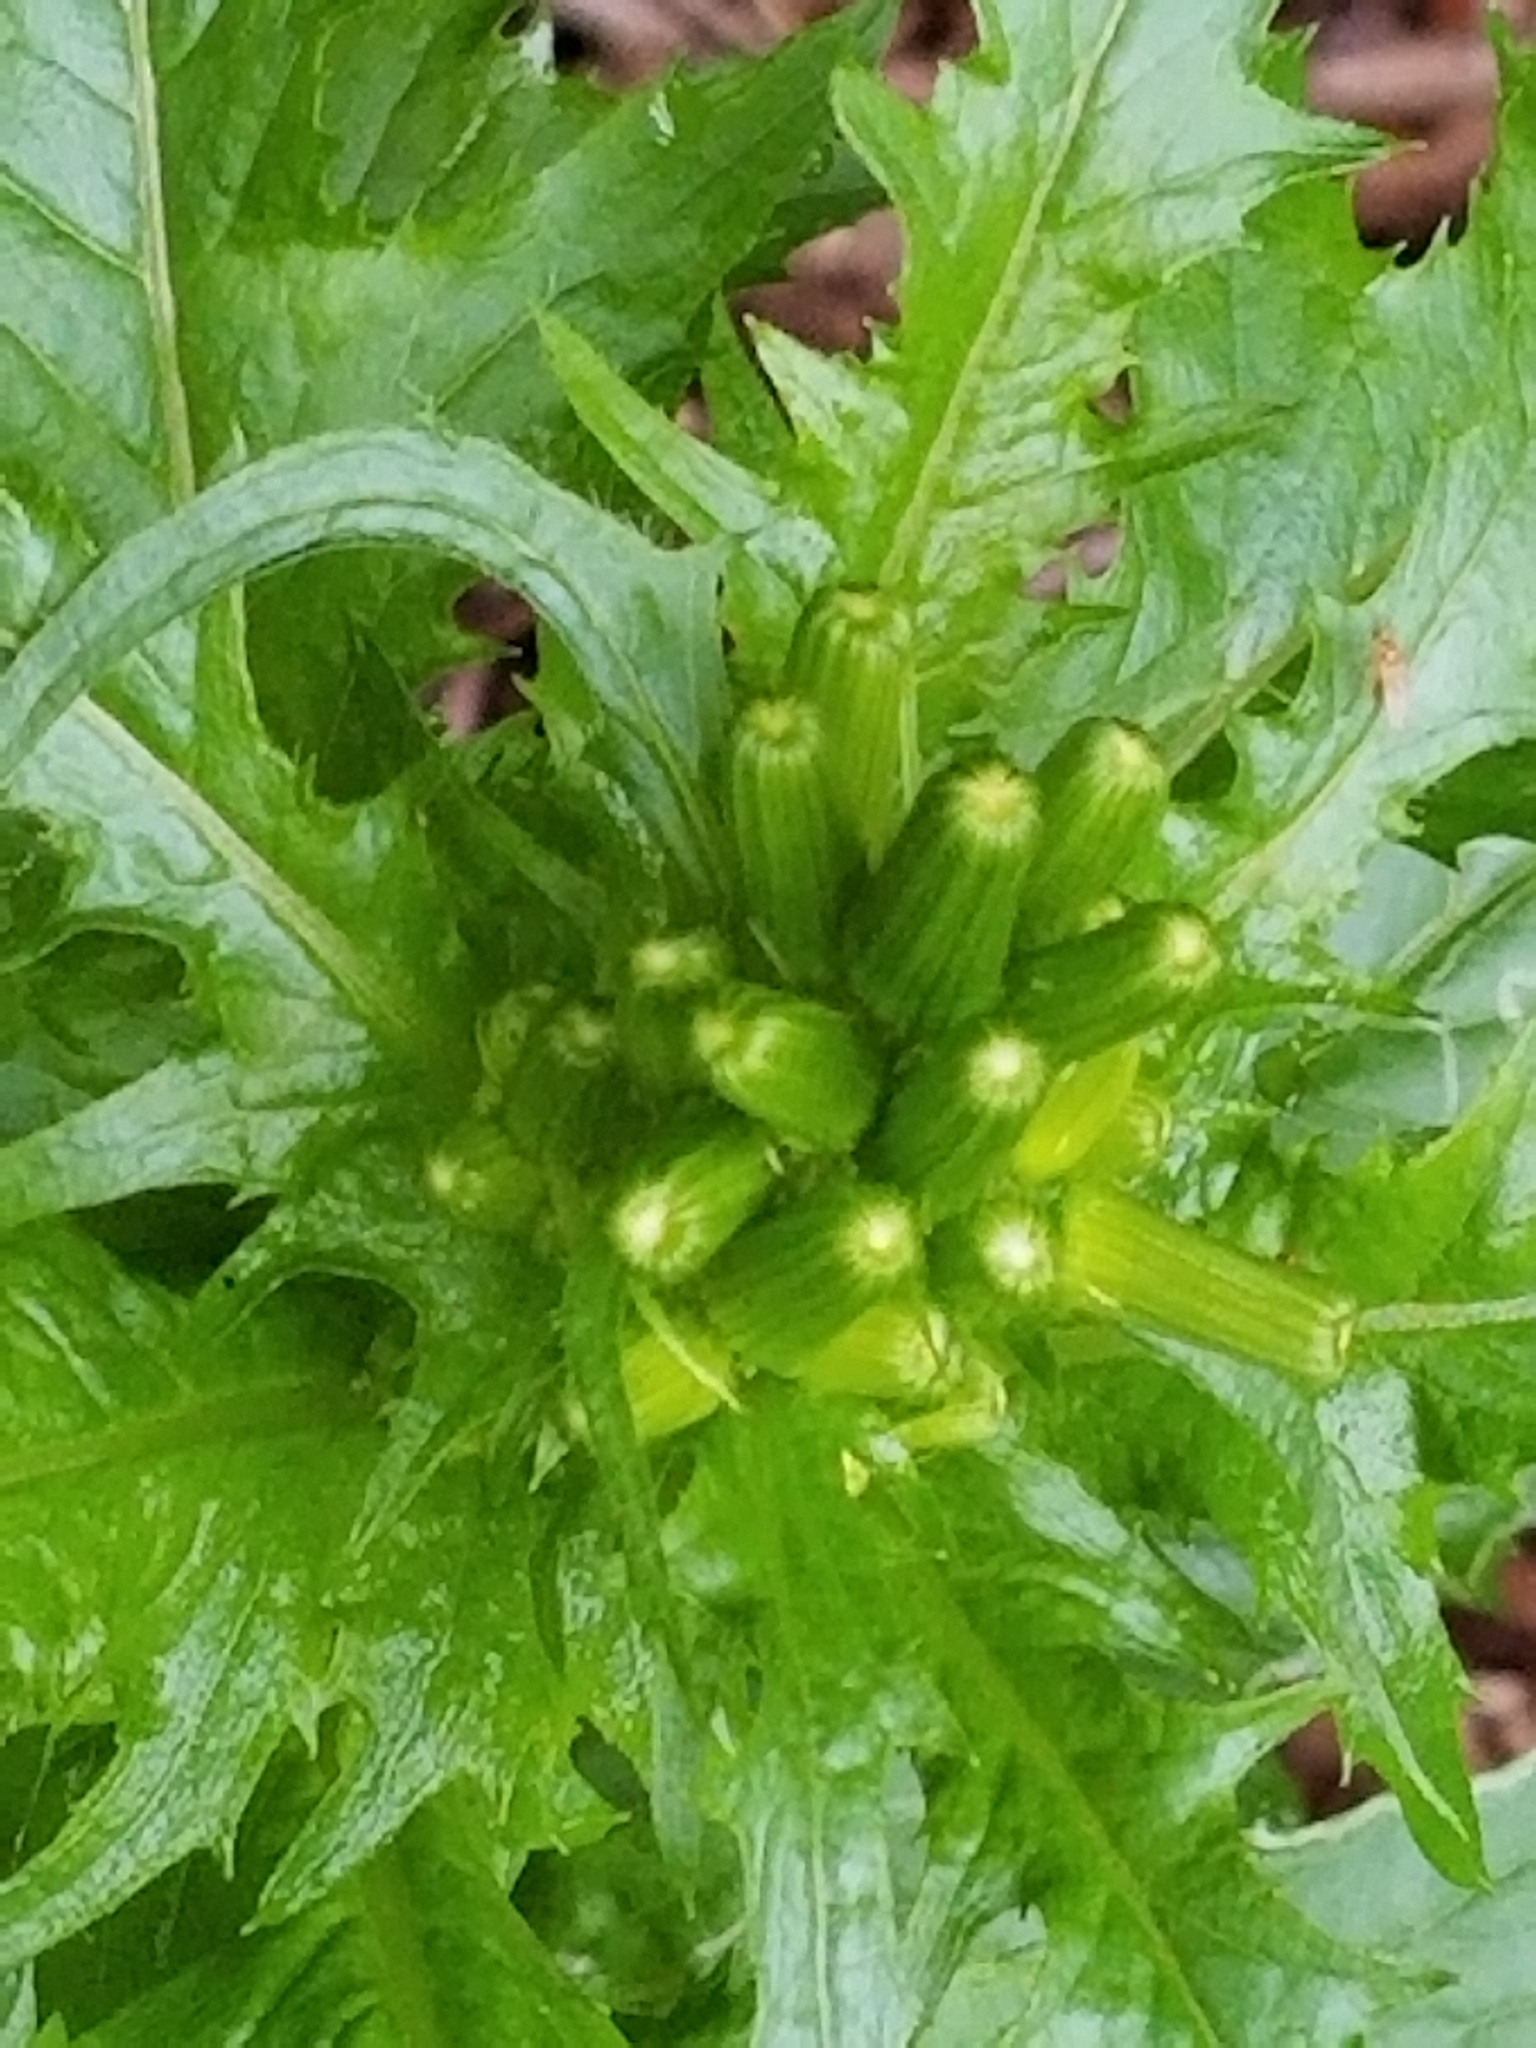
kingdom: Plantae
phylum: Tracheophyta
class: Magnoliopsida
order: Asterales
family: Asteraceae
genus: Erechtites
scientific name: Erechtites hieraciifolius
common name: American burnweed
